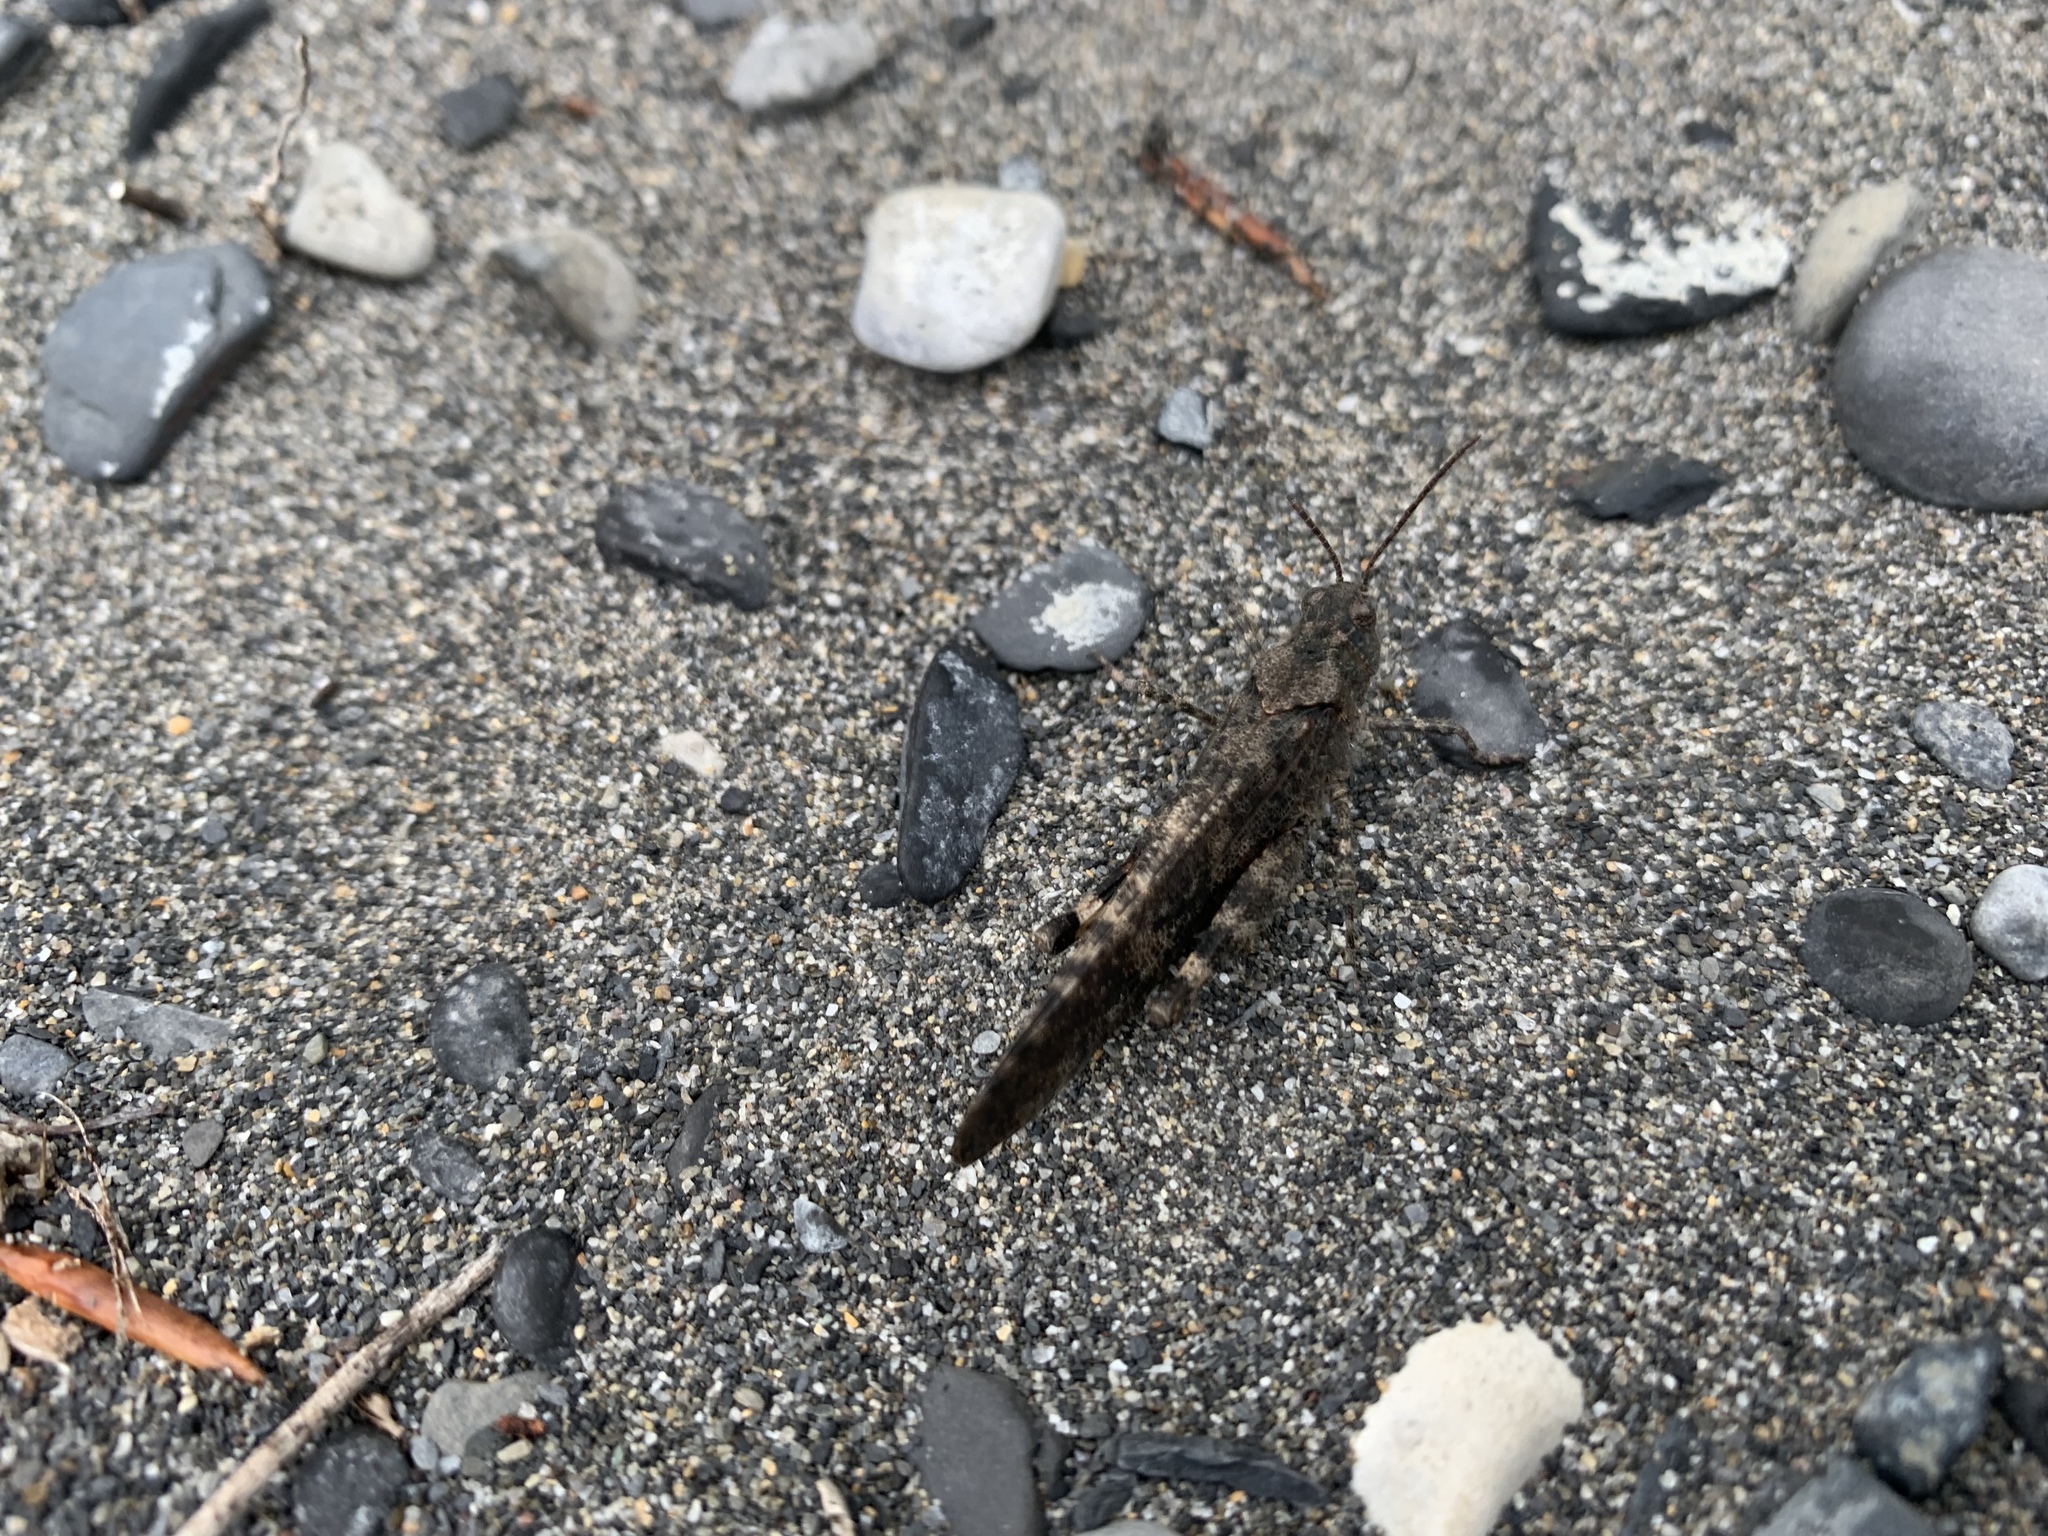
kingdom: Animalia
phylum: Arthropoda
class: Insecta
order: Orthoptera
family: Acrididae
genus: Trimerotropis
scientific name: Trimerotropis verruculata
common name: Crackling forest grasshopper
